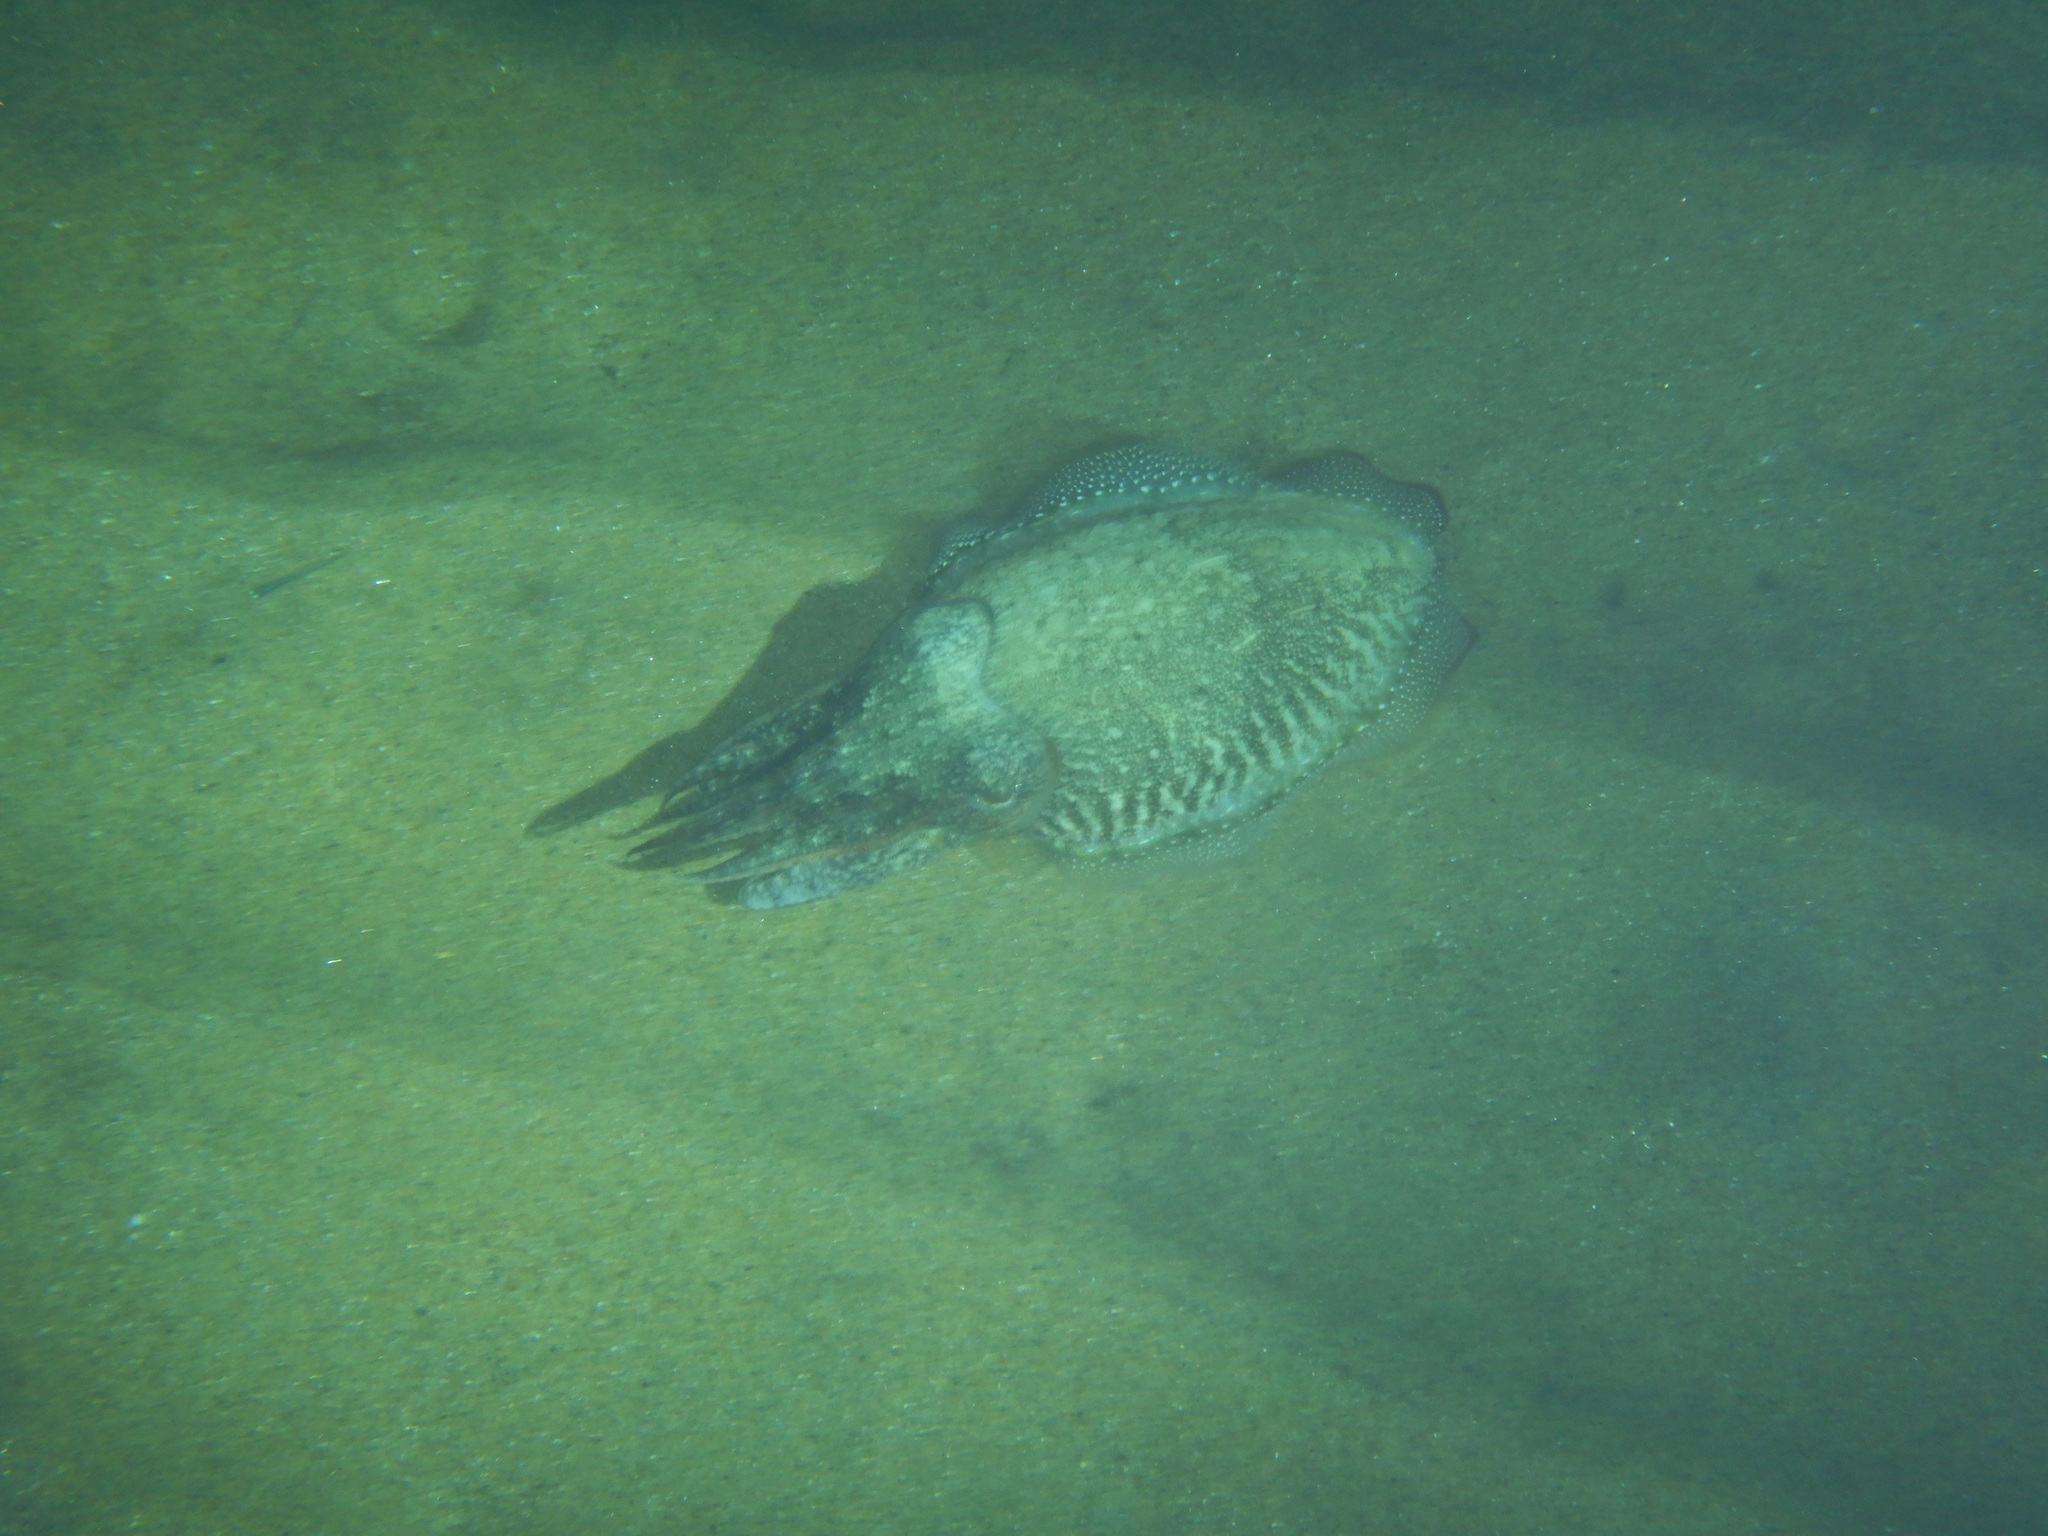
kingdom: Animalia
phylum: Mollusca
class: Cephalopoda
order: Sepiida
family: Sepiidae
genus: Sepia
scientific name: Sepia officinalis
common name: Common cuttlefish
